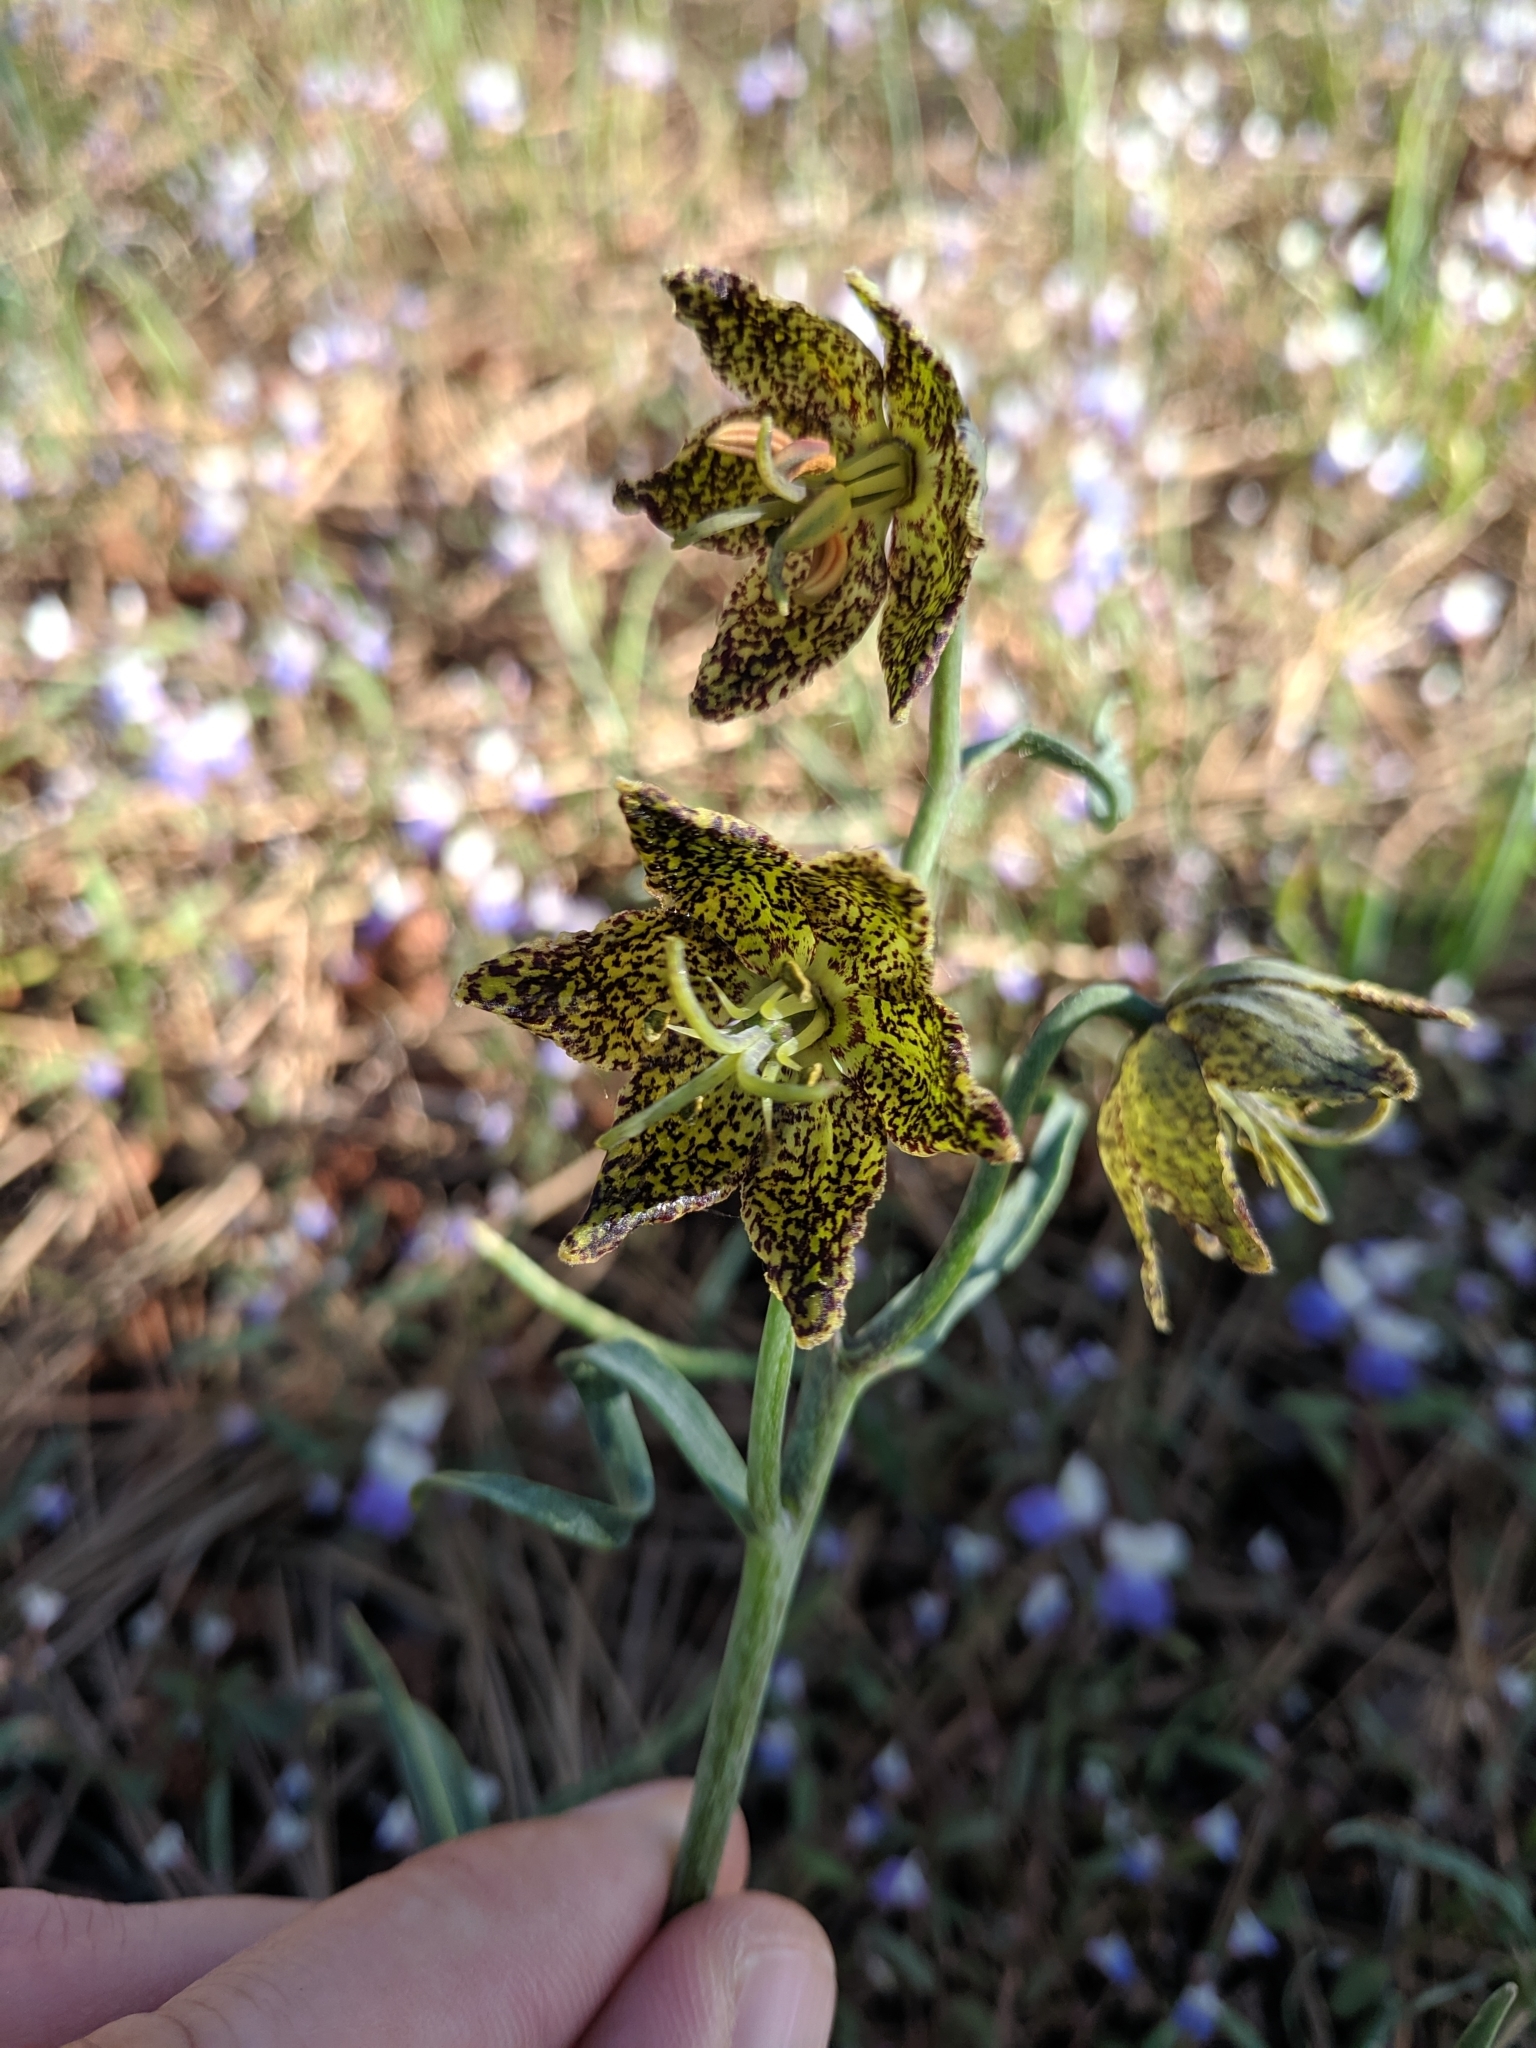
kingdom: Plantae
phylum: Tracheophyta
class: Liliopsida
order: Liliales
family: Liliaceae
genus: Fritillaria
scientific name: Fritillaria pinetorum
